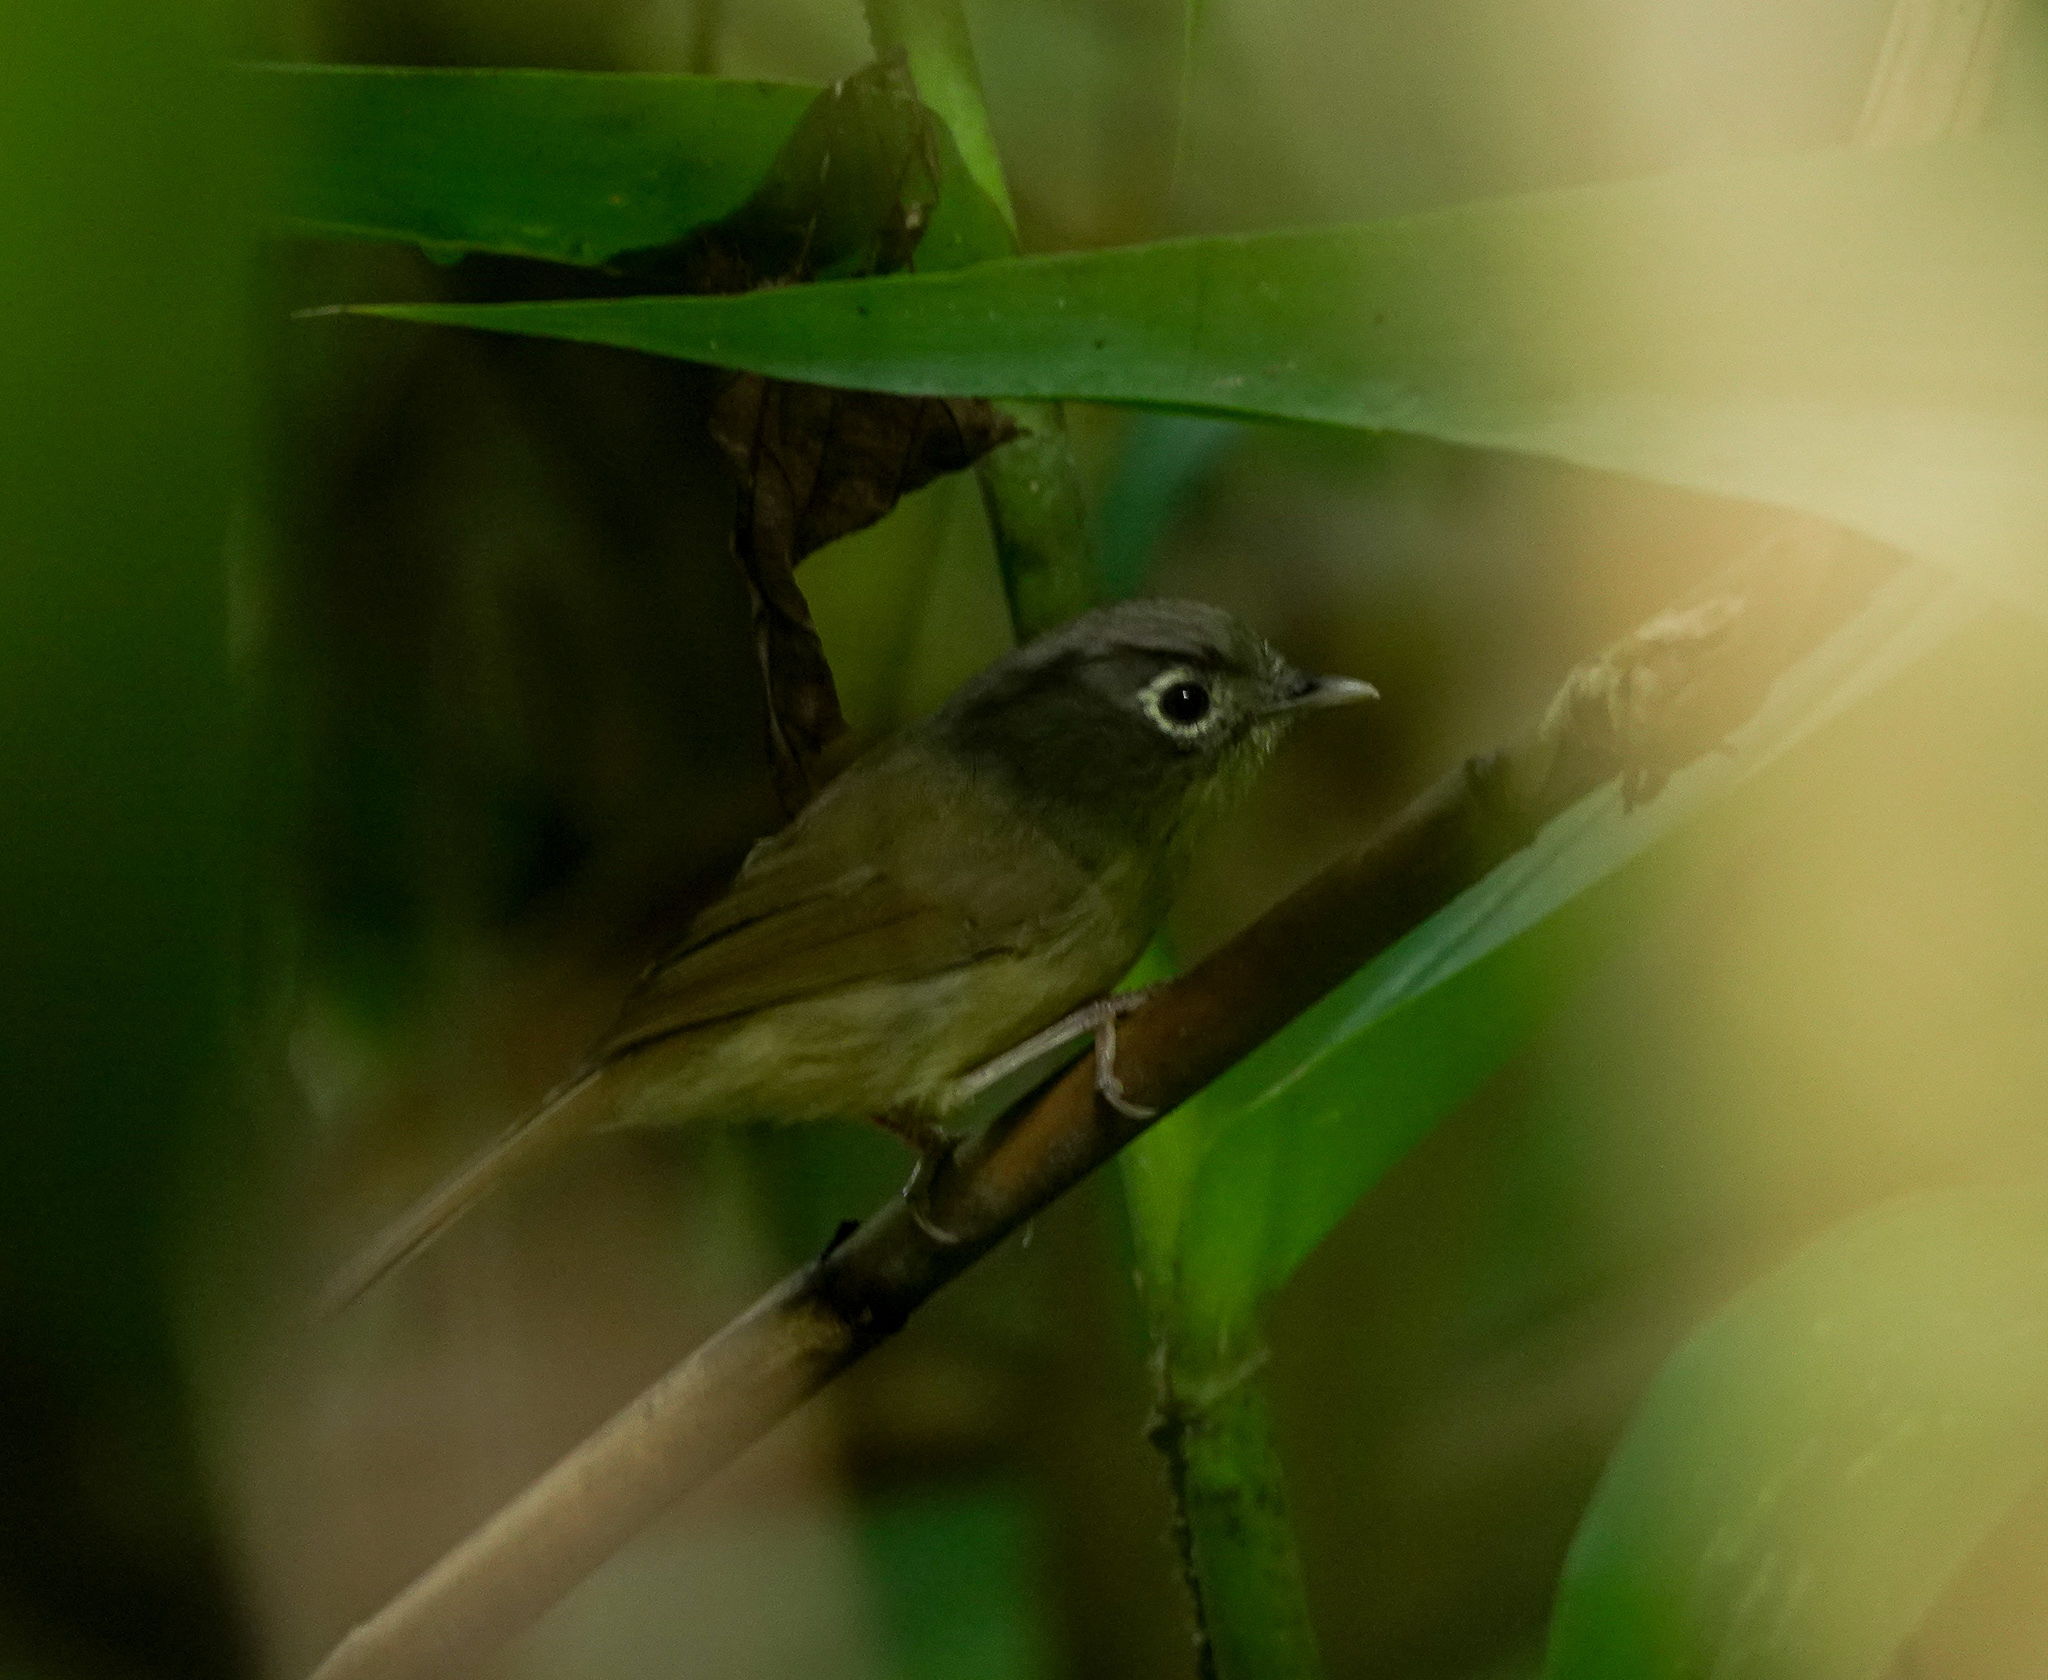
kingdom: Animalia
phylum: Chordata
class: Aves
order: Passeriformes
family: Pellorneidae
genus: Alcippe
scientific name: Alcippe nipalensis
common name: Nepal fulvetta
